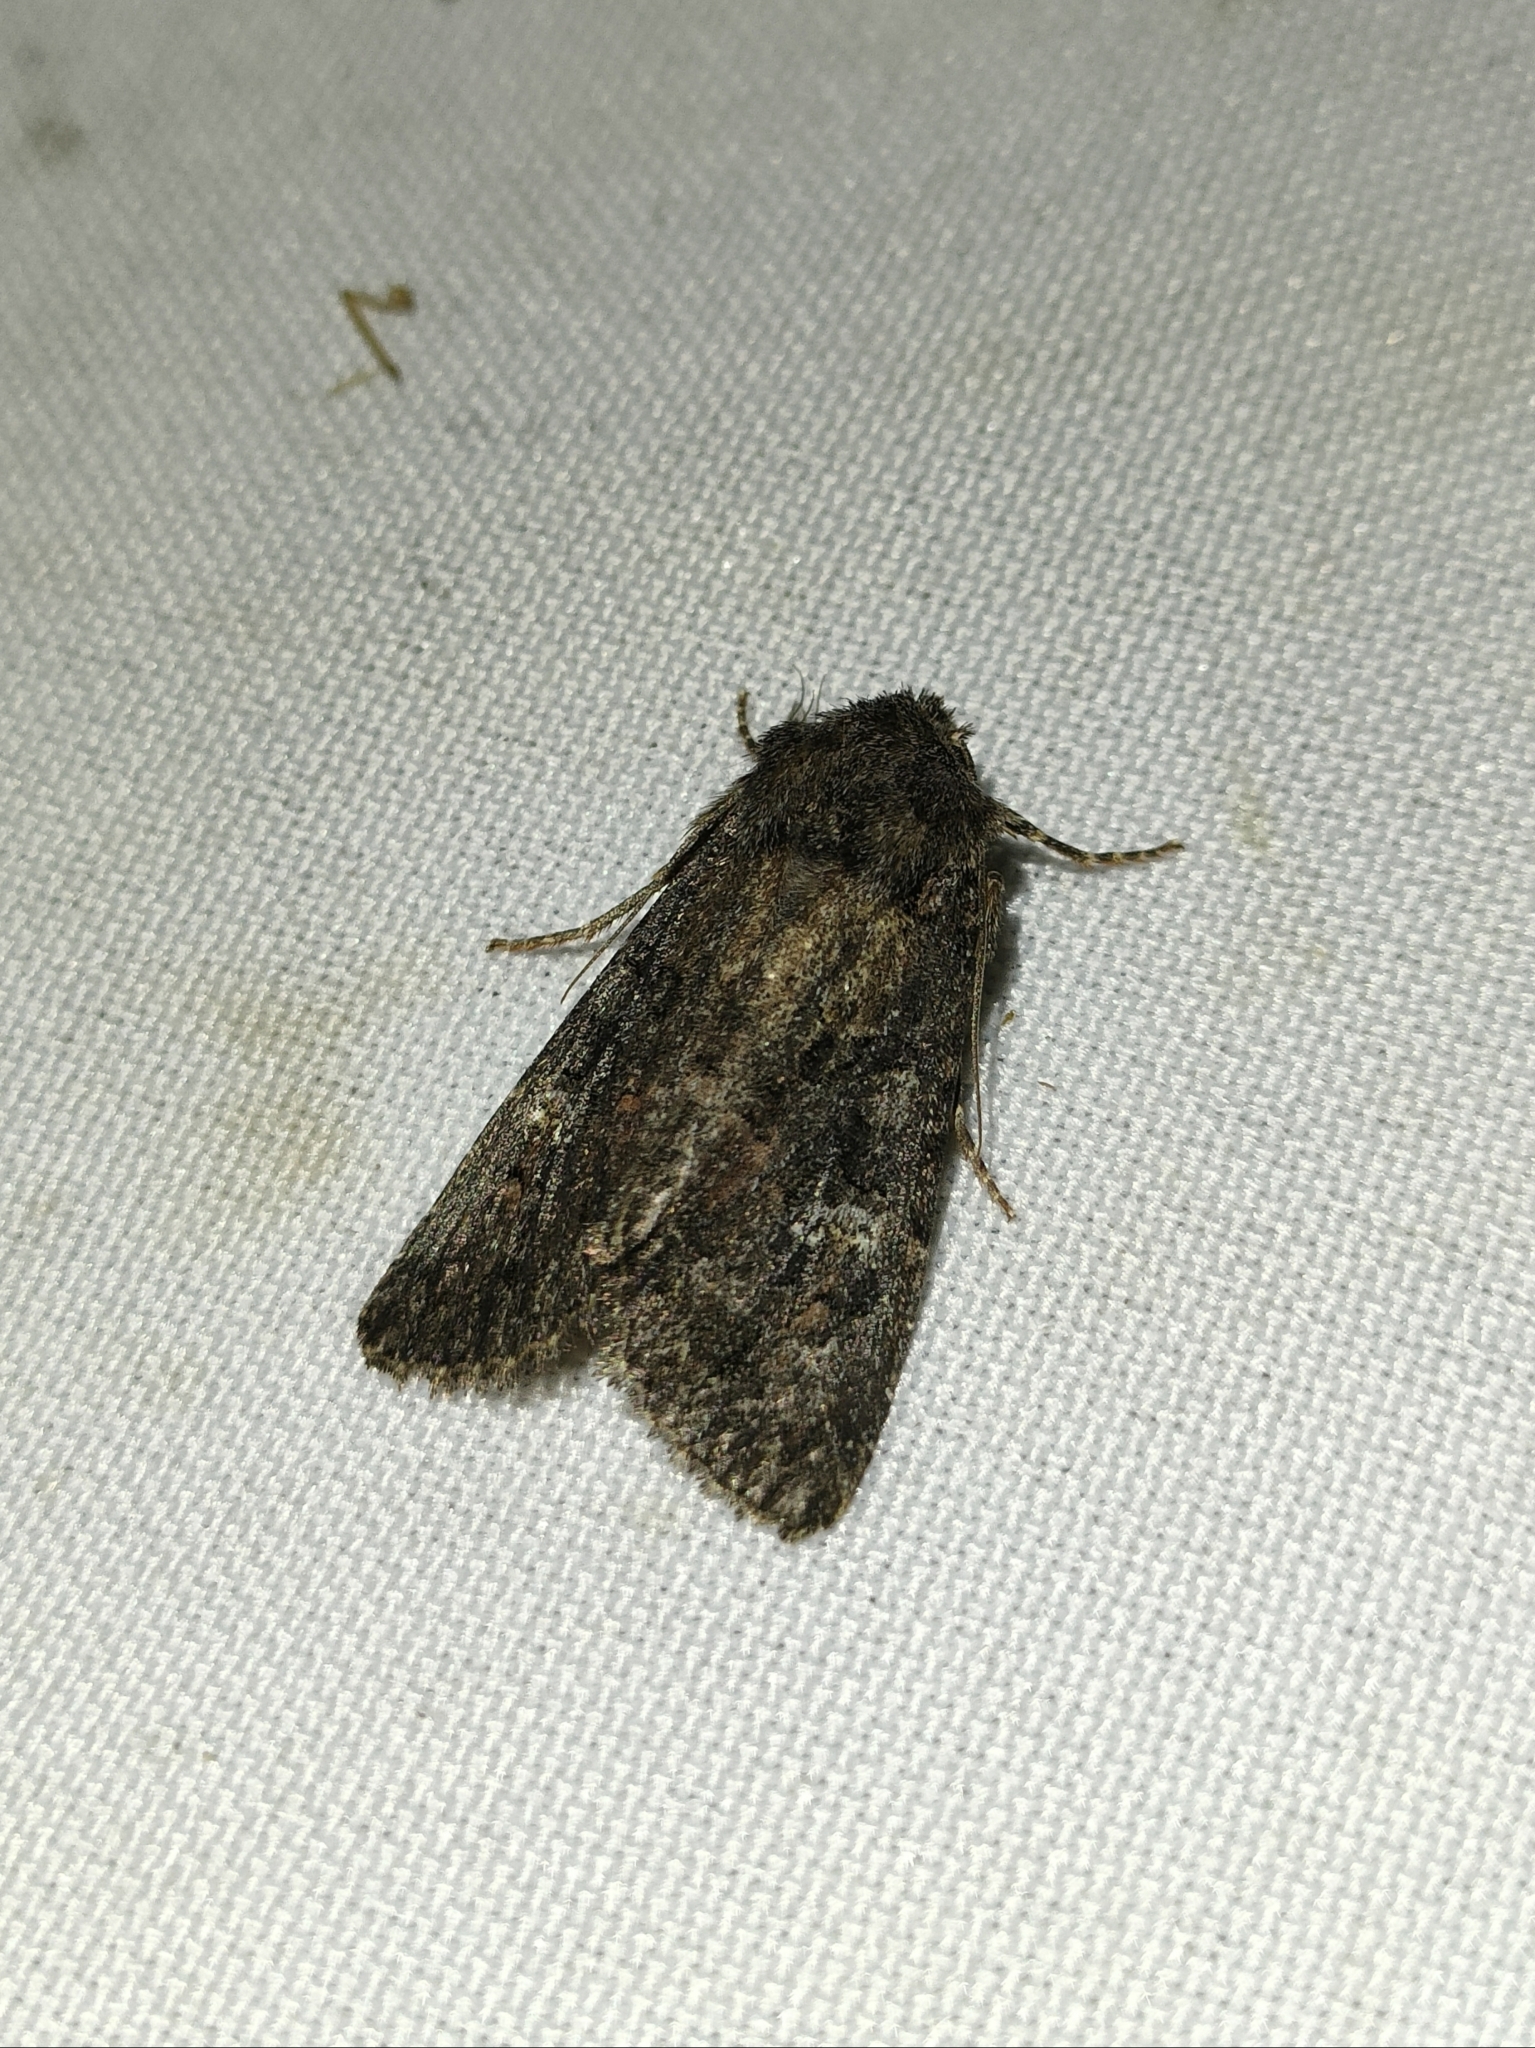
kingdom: Animalia
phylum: Arthropoda
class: Insecta
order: Lepidoptera
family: Noctuidae
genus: Trigonophora
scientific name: Trigonophora haasi
